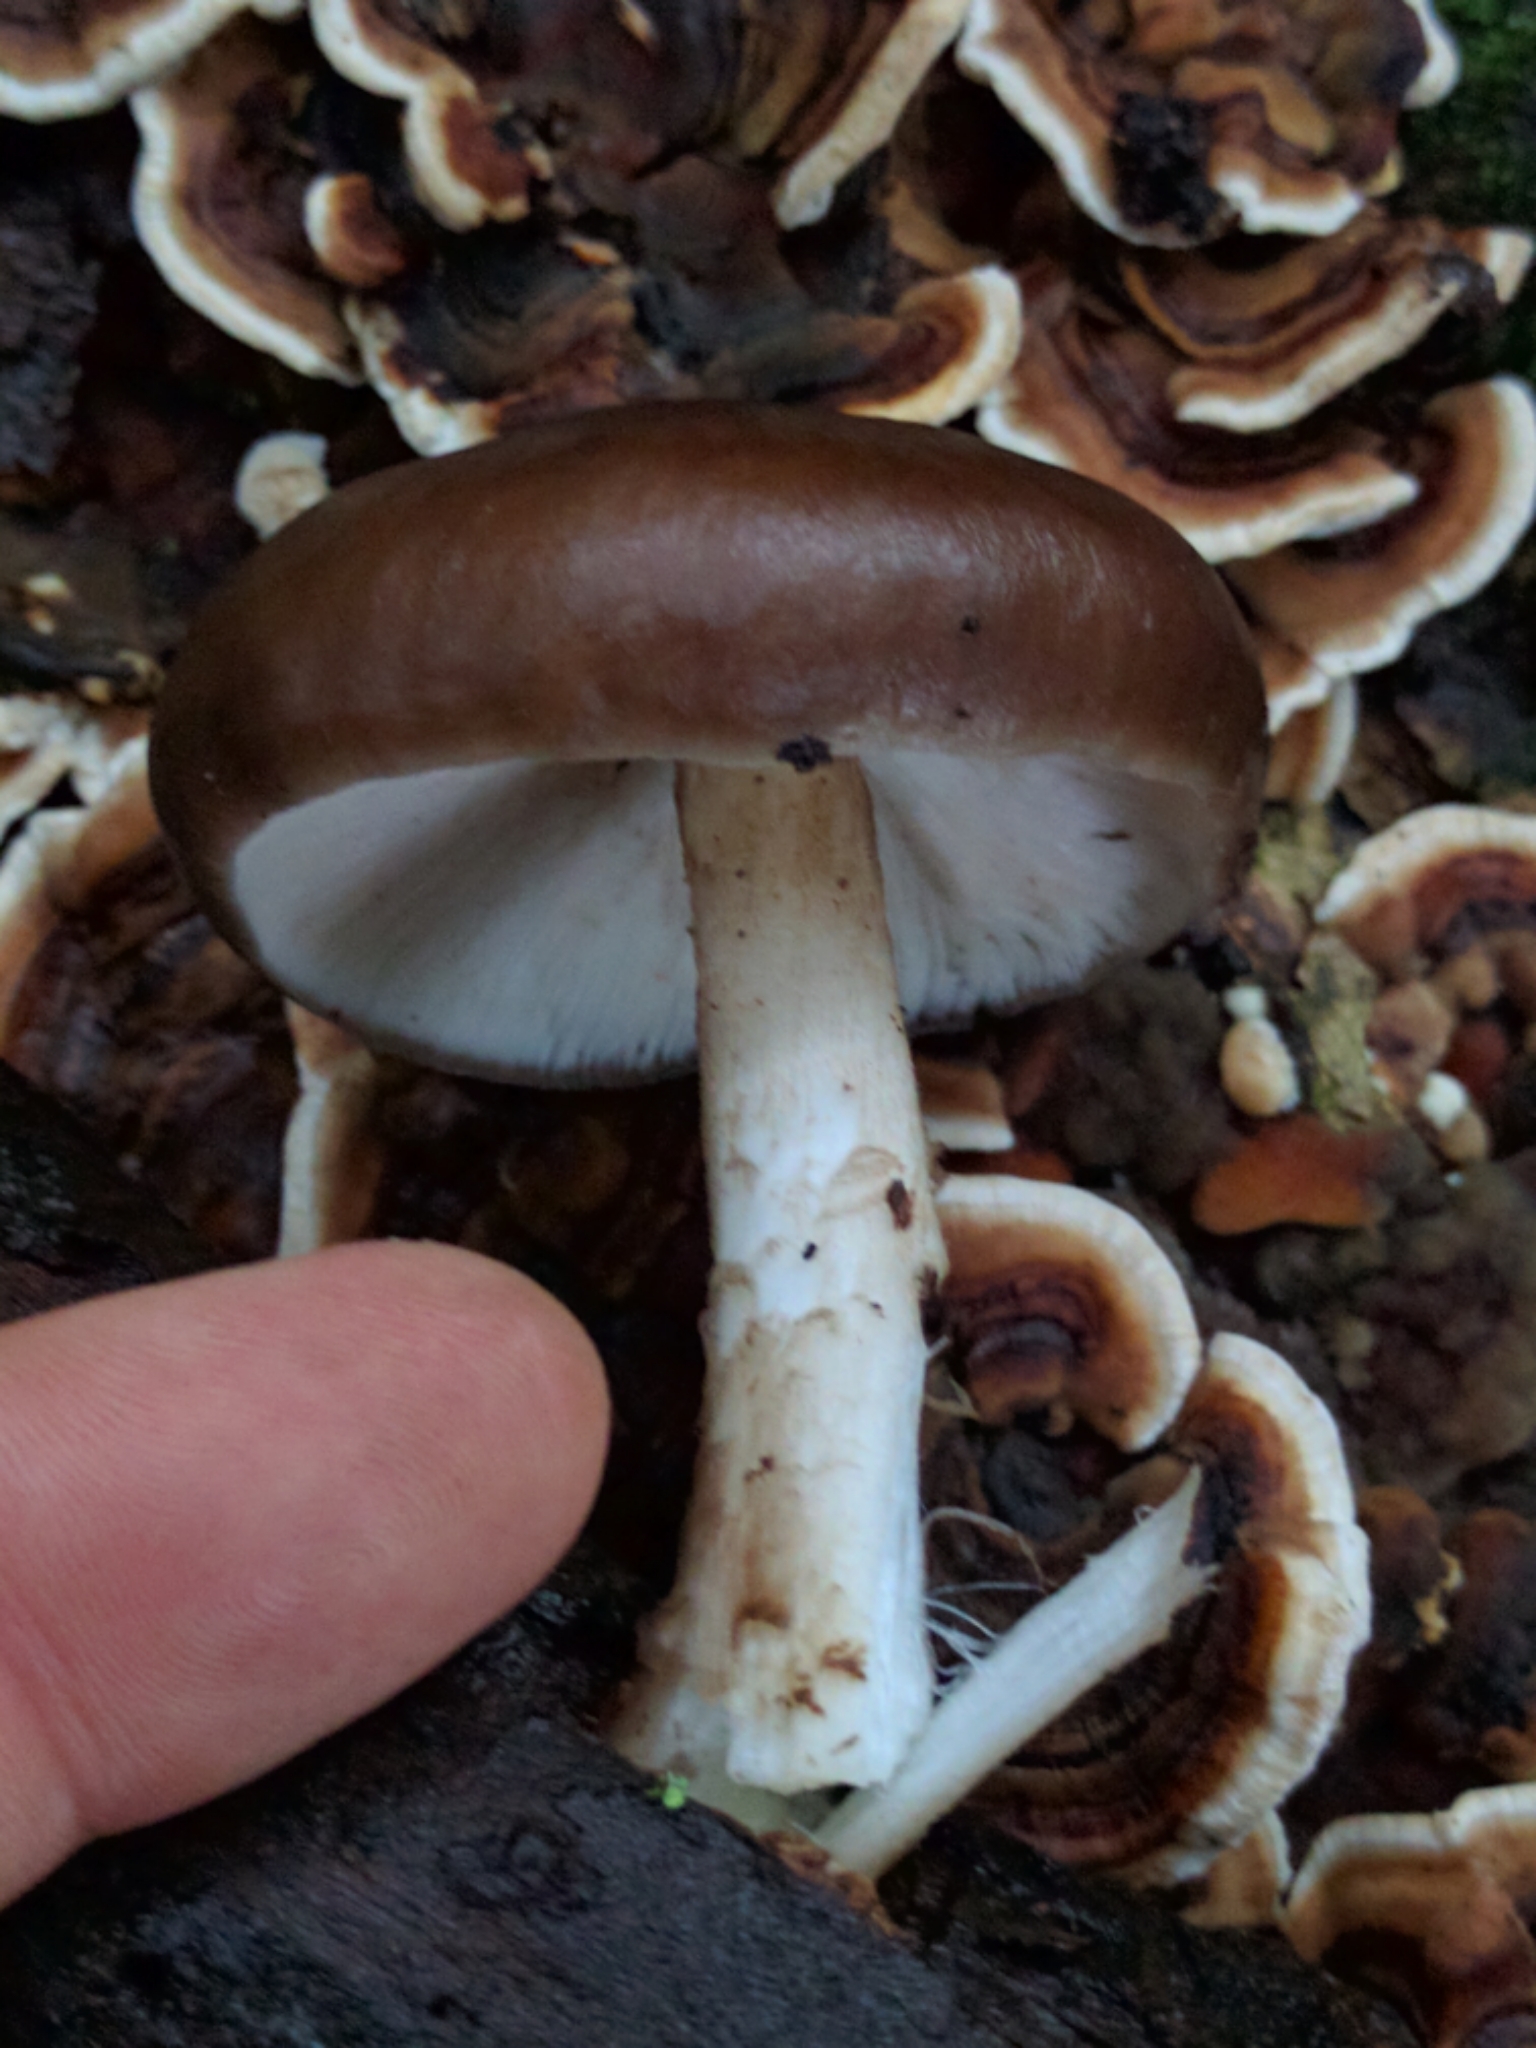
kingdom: Fungi
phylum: Basidiomycota
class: Agaricomycetes
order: Agaricales
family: Pluteaceae
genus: Pluteus
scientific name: Pluteus exilis
